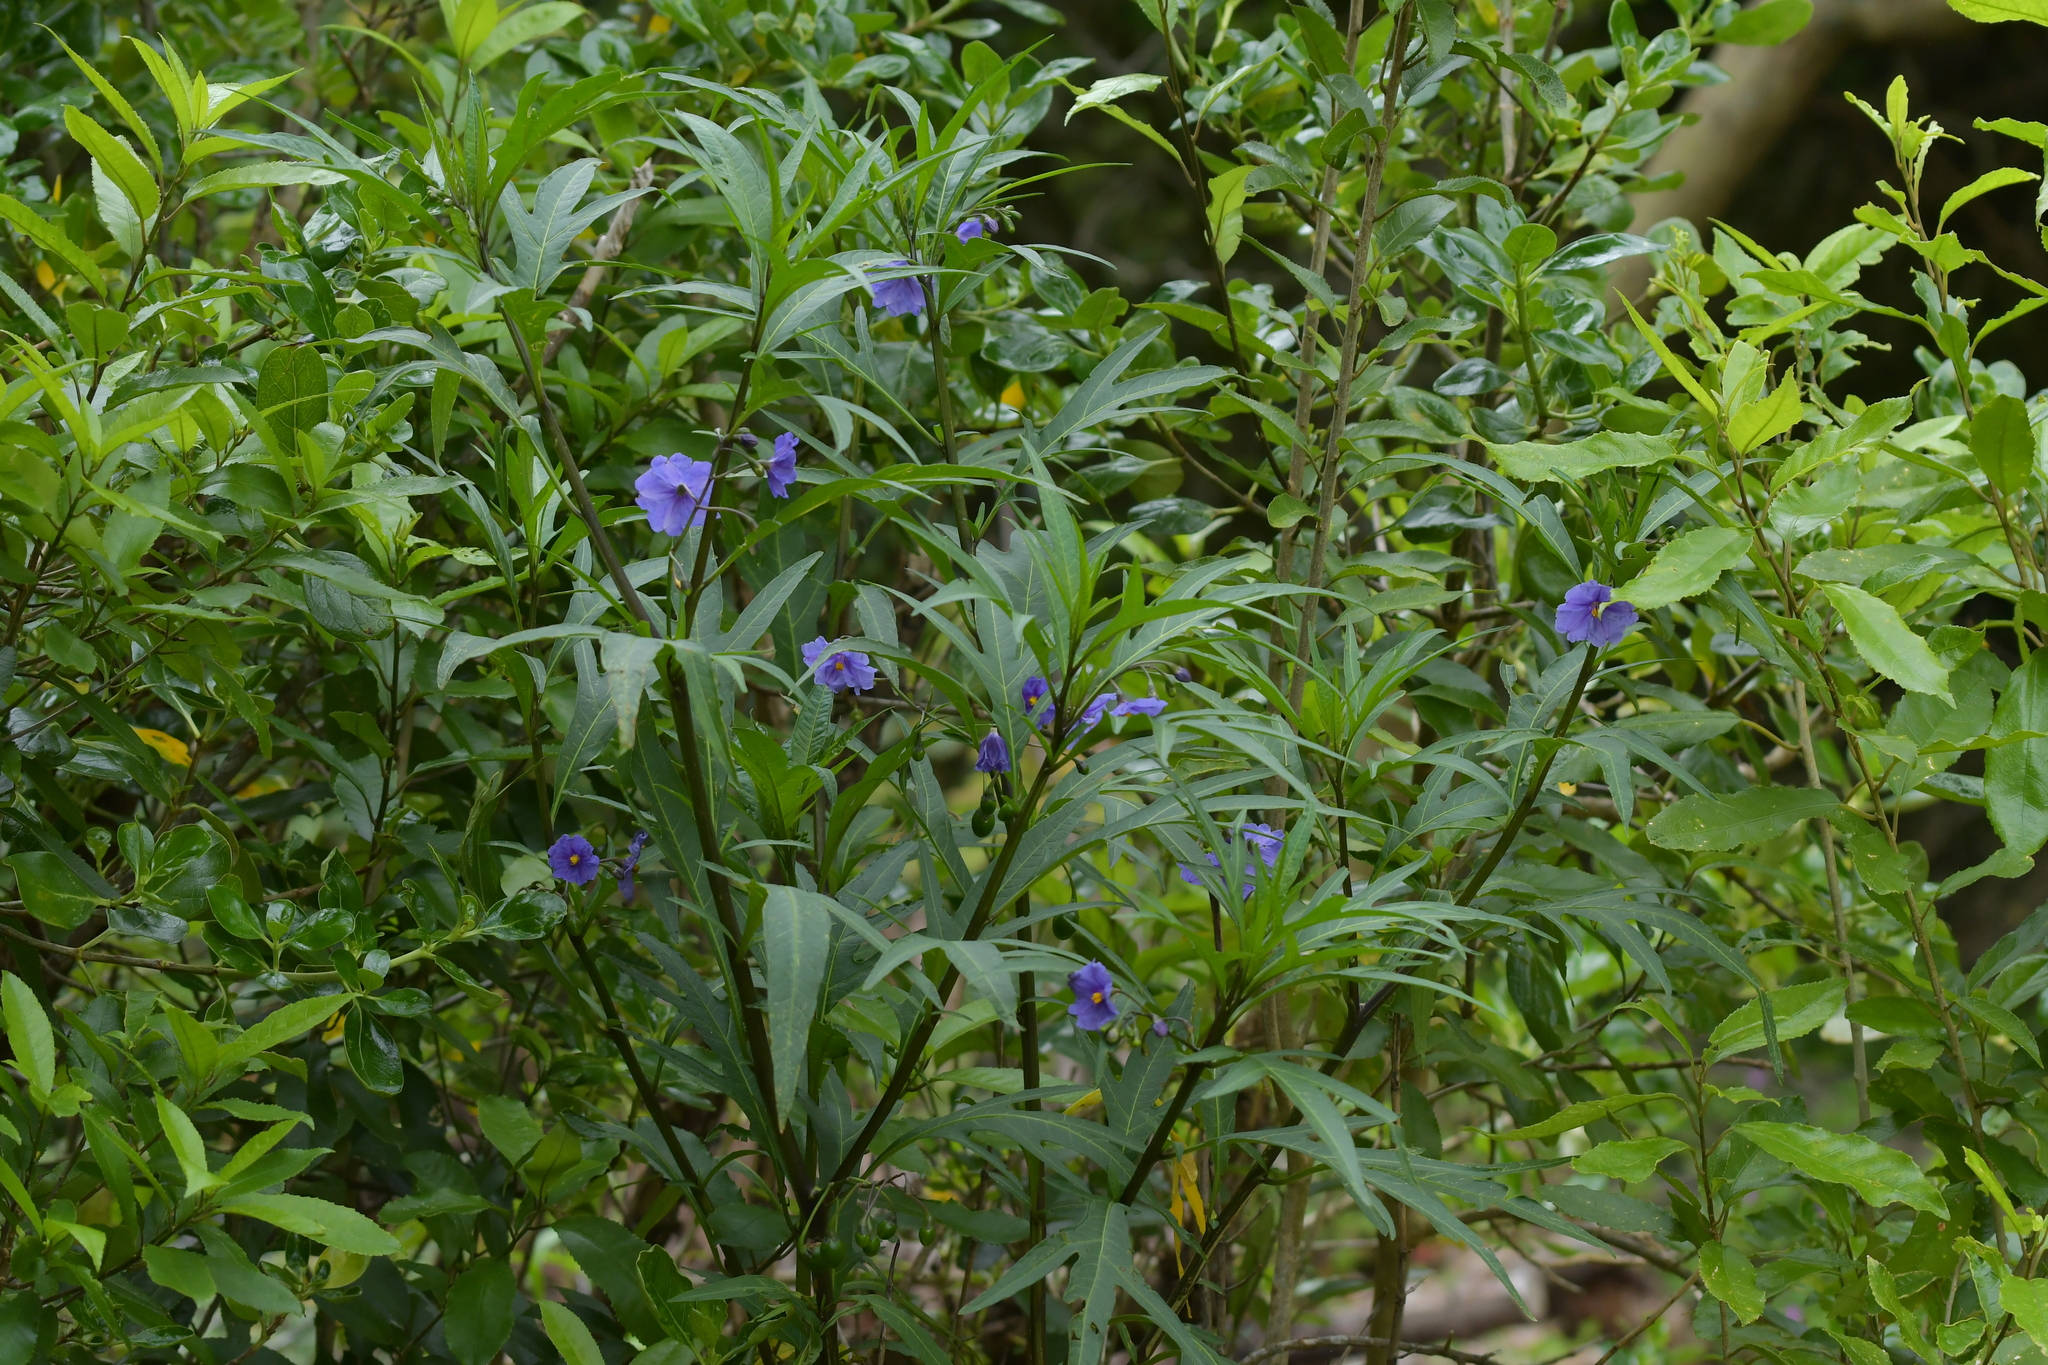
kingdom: Plantae
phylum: Tracheophyta
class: Magnoliopsida
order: Solanales
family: Solanaceae
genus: Solanum
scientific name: Solanum laciniatum
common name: Kangaroo-apple
